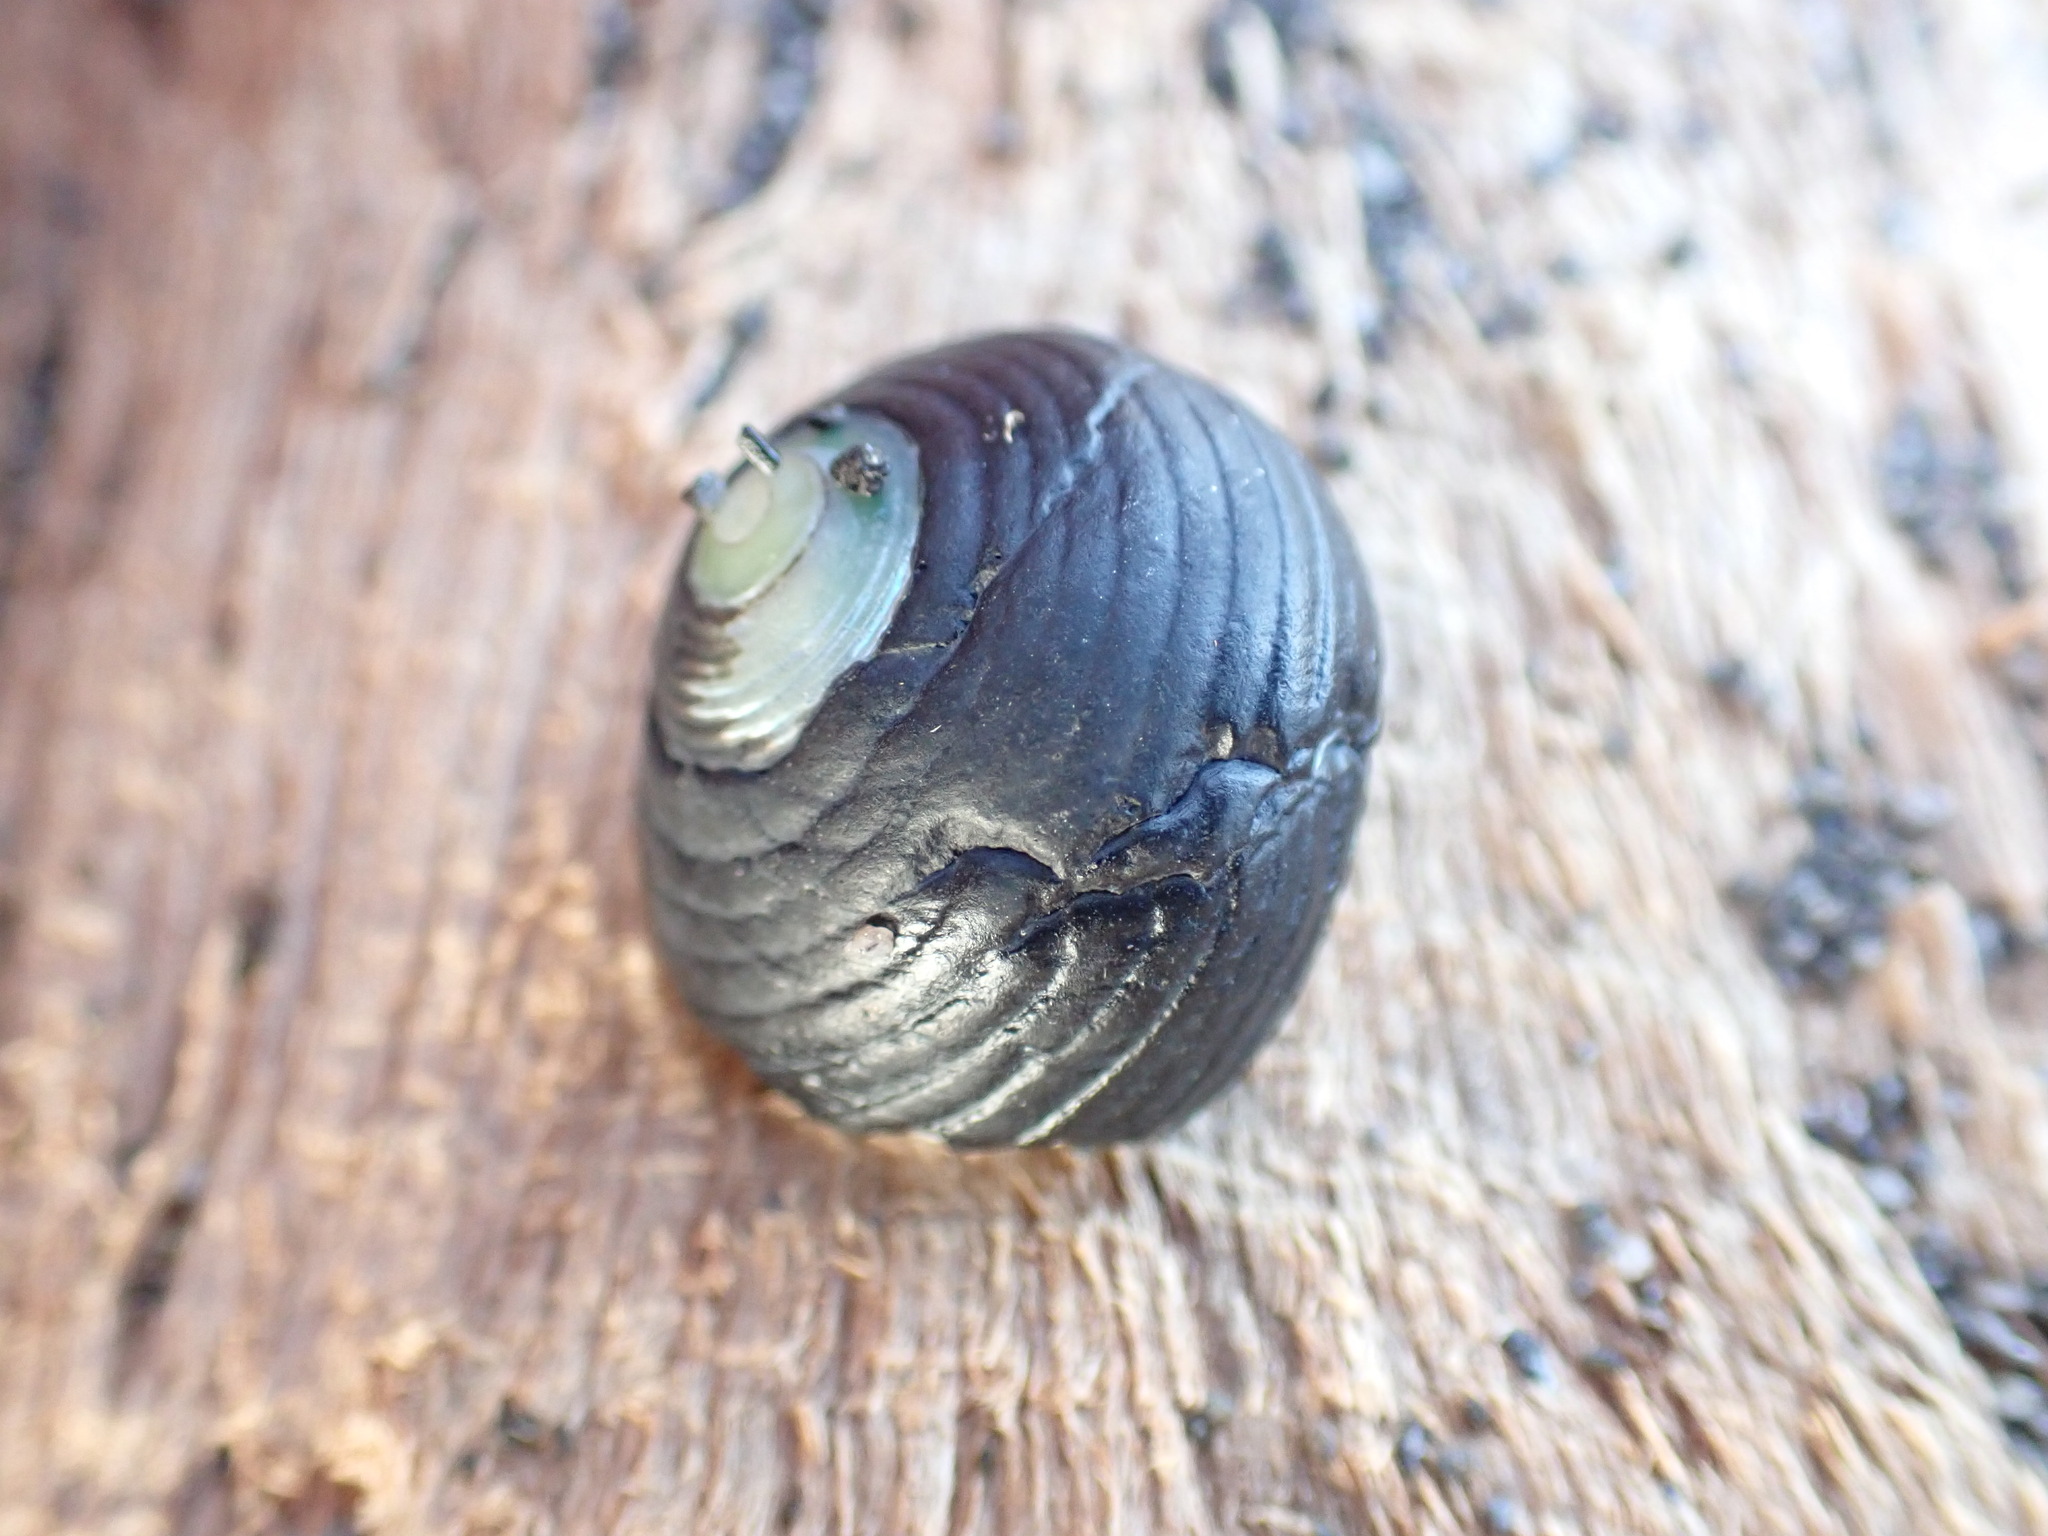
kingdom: Animalia
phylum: Mollusca
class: Gastropoda
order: Trochida
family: Trochidae
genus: Diloma
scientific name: Diloma zelandicum
